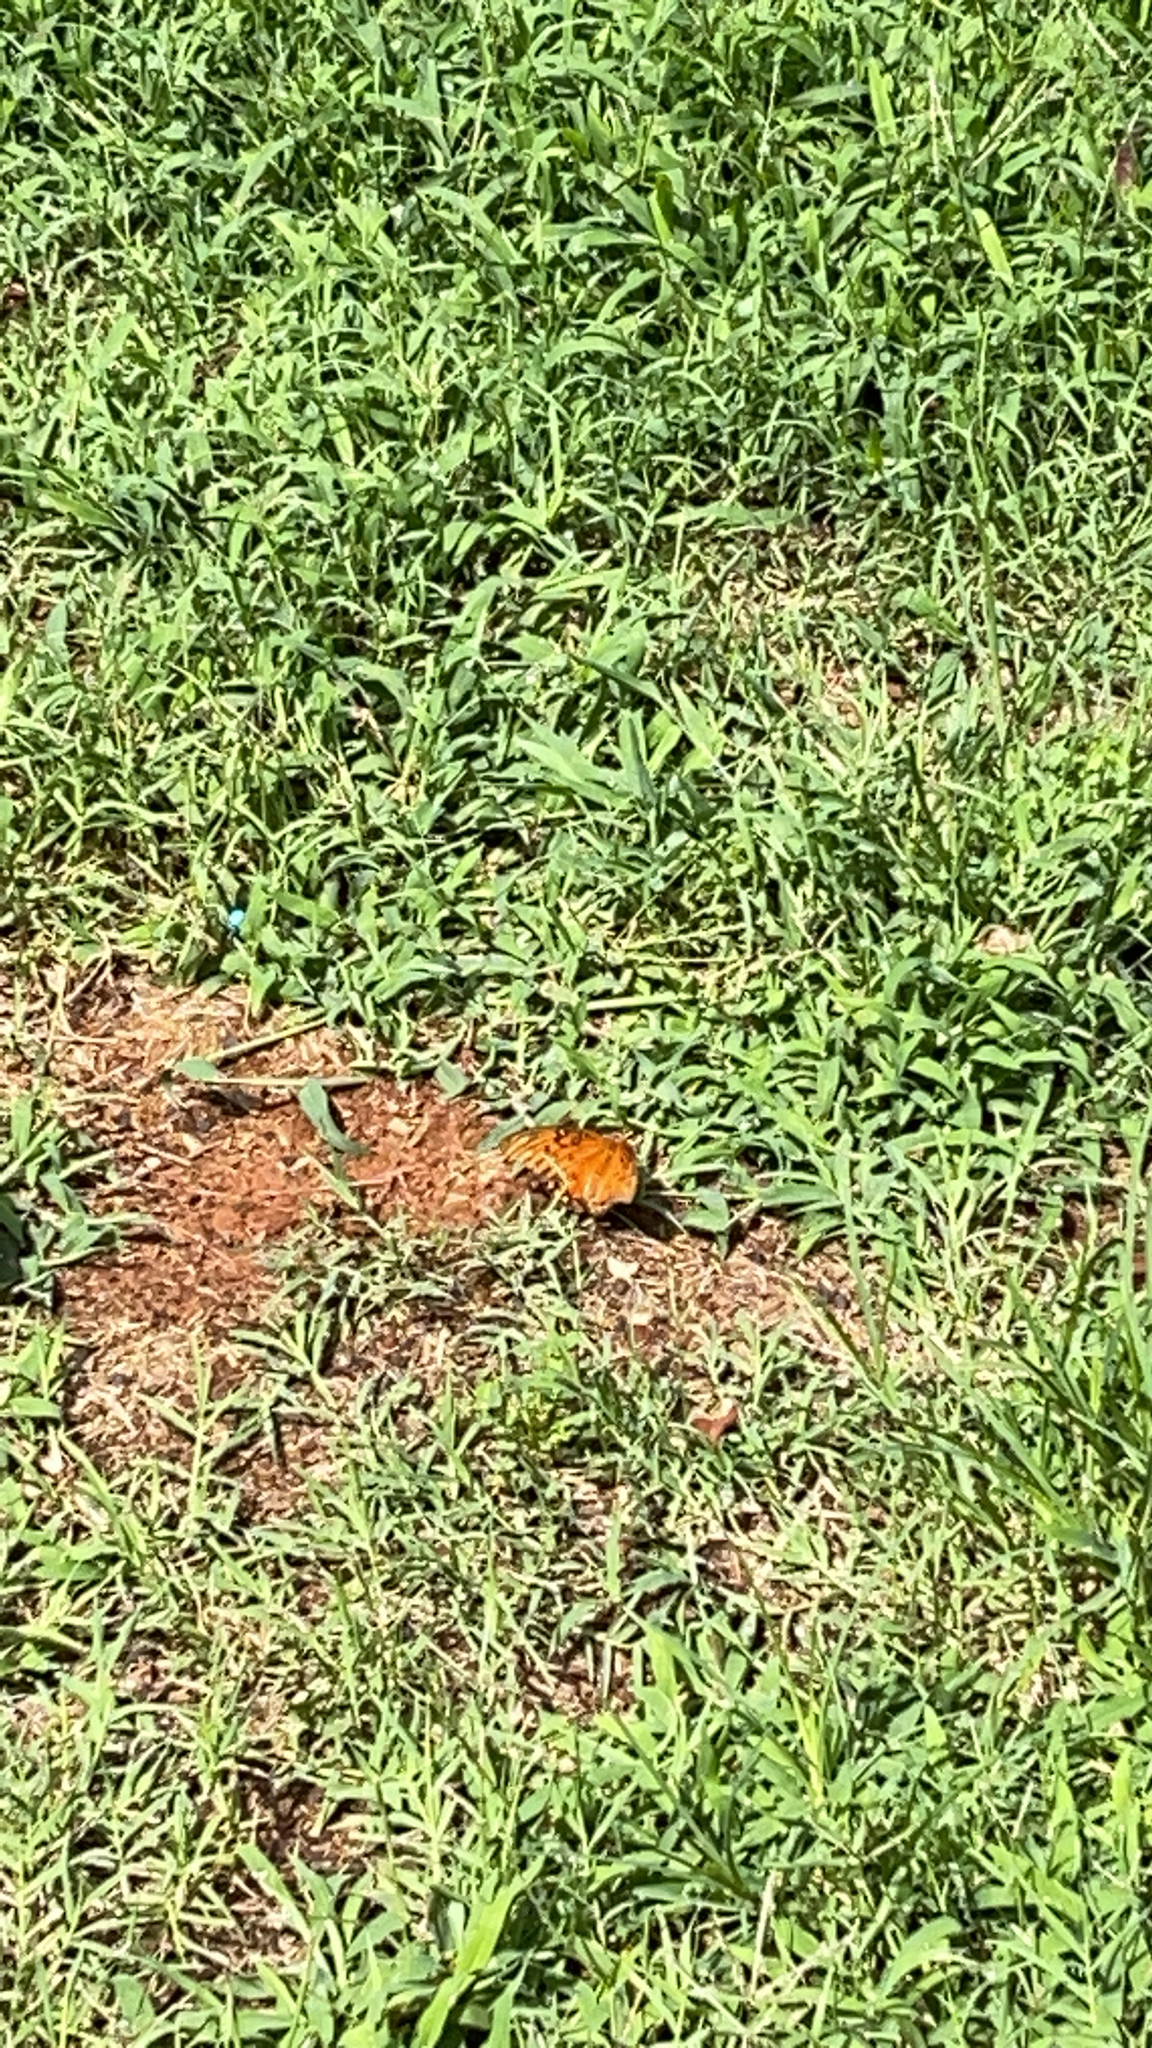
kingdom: Animalia
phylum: Arthropoda
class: Insecta
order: Lepidoptera
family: Nymphalidae
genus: Dione
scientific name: Dione vanillae
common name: Gulf fritillary
